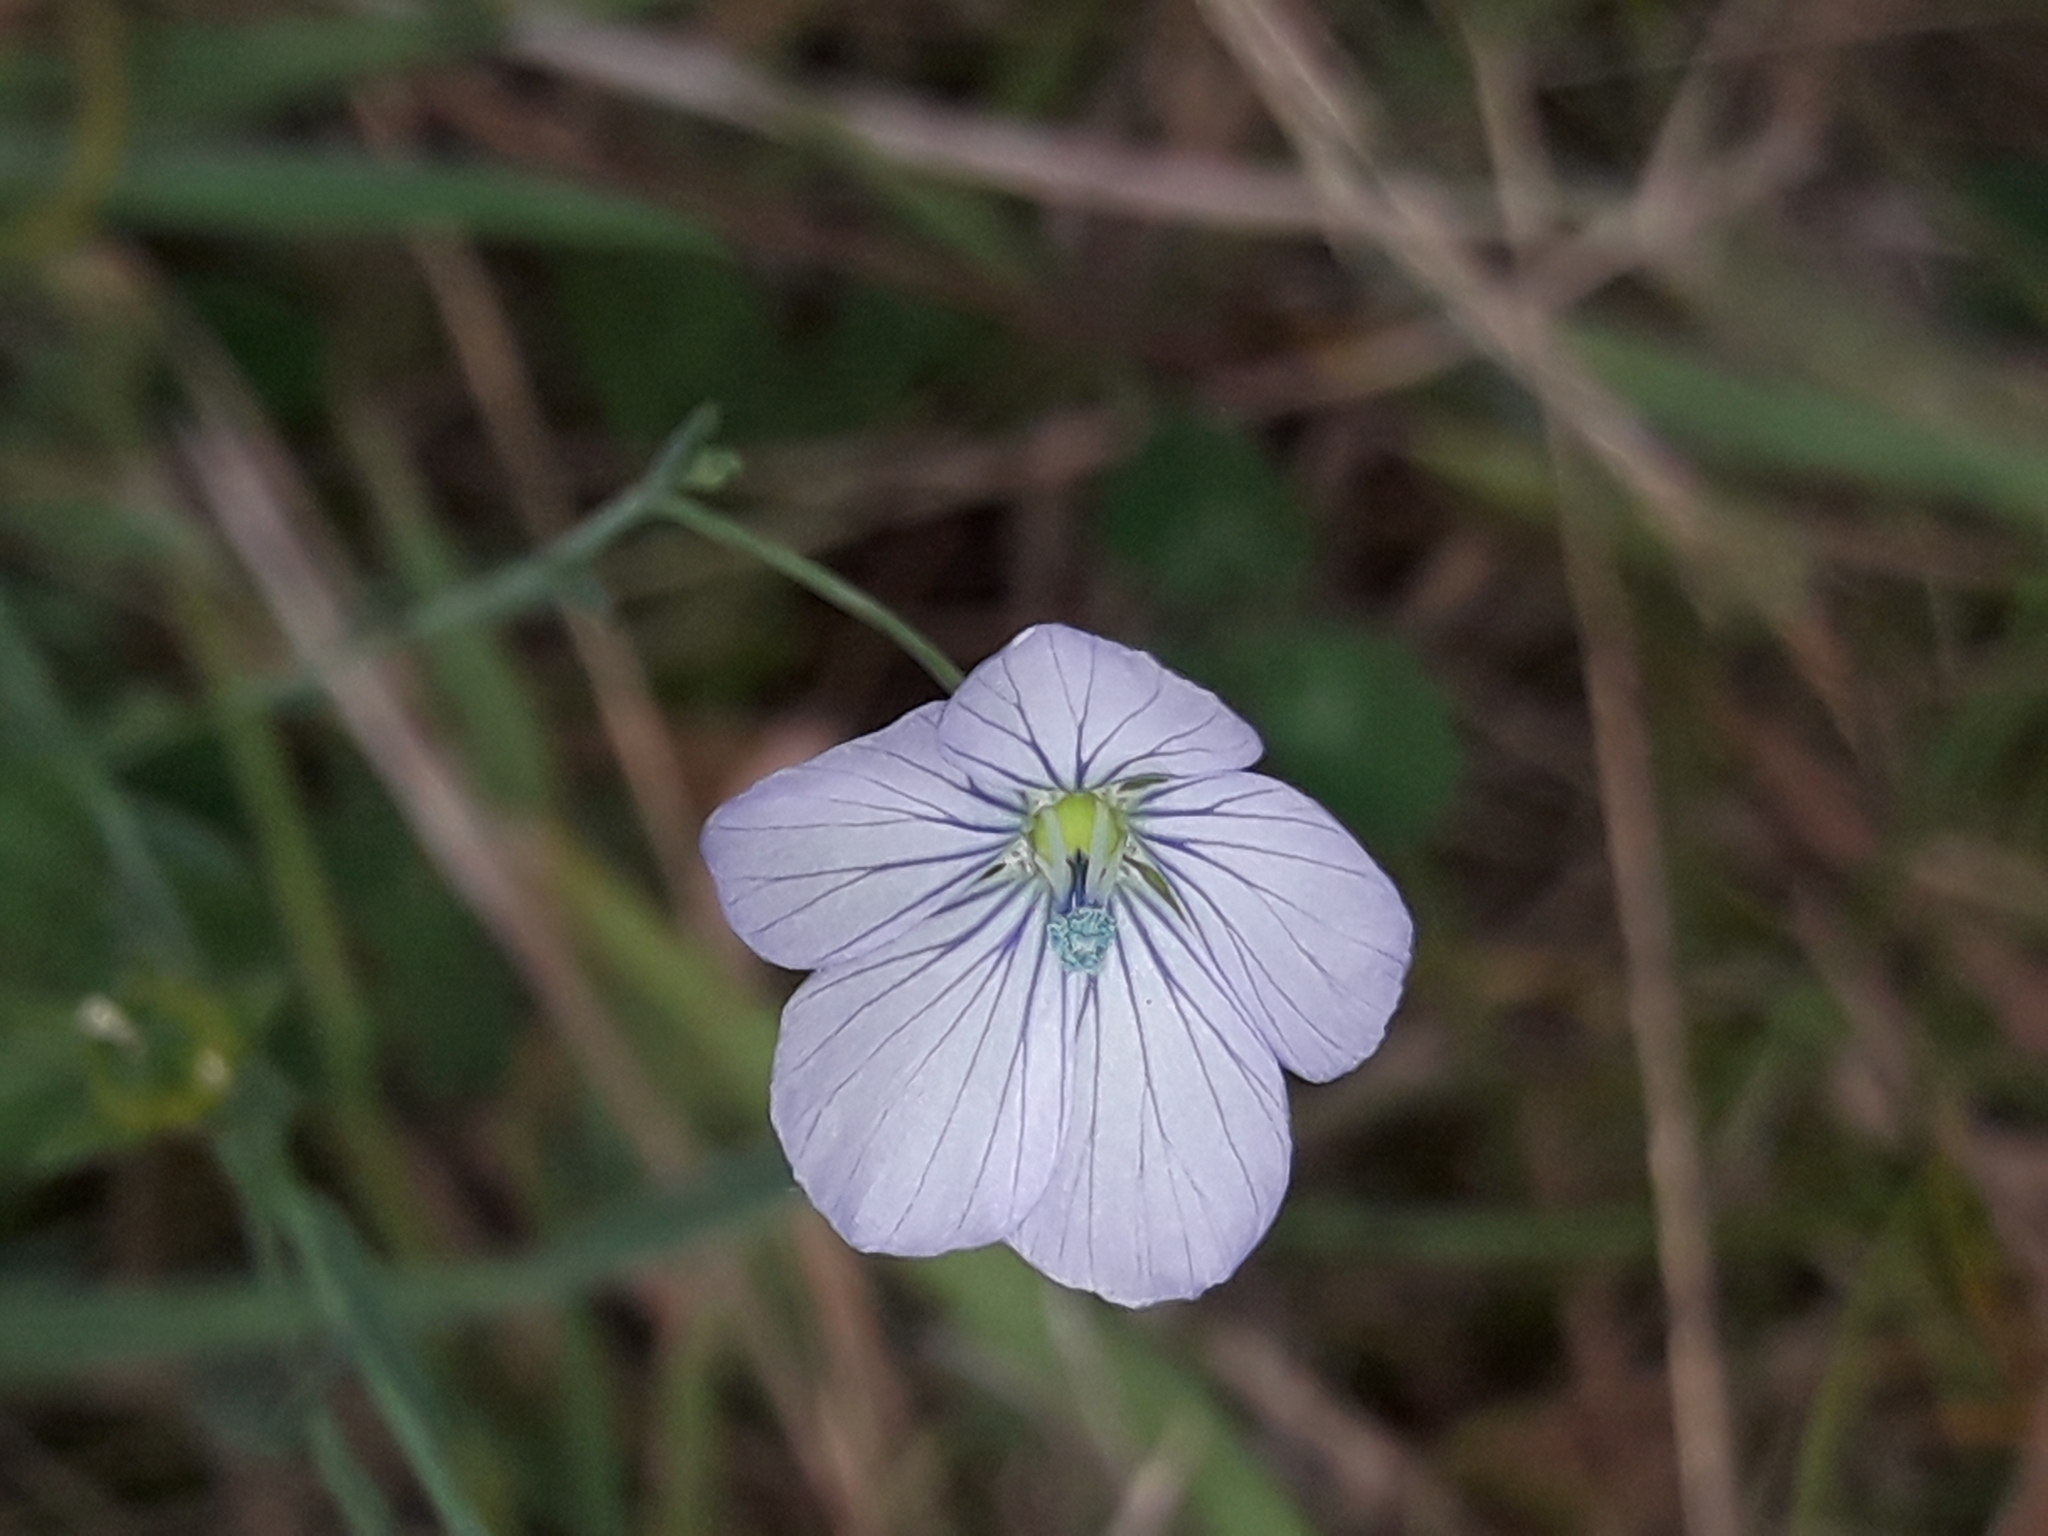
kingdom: Plantae
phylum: Tracheophyta
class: Magnoliopsida
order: Malpighiales
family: Linaceae
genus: Linum
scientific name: Linum bienne
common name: Pale flax
